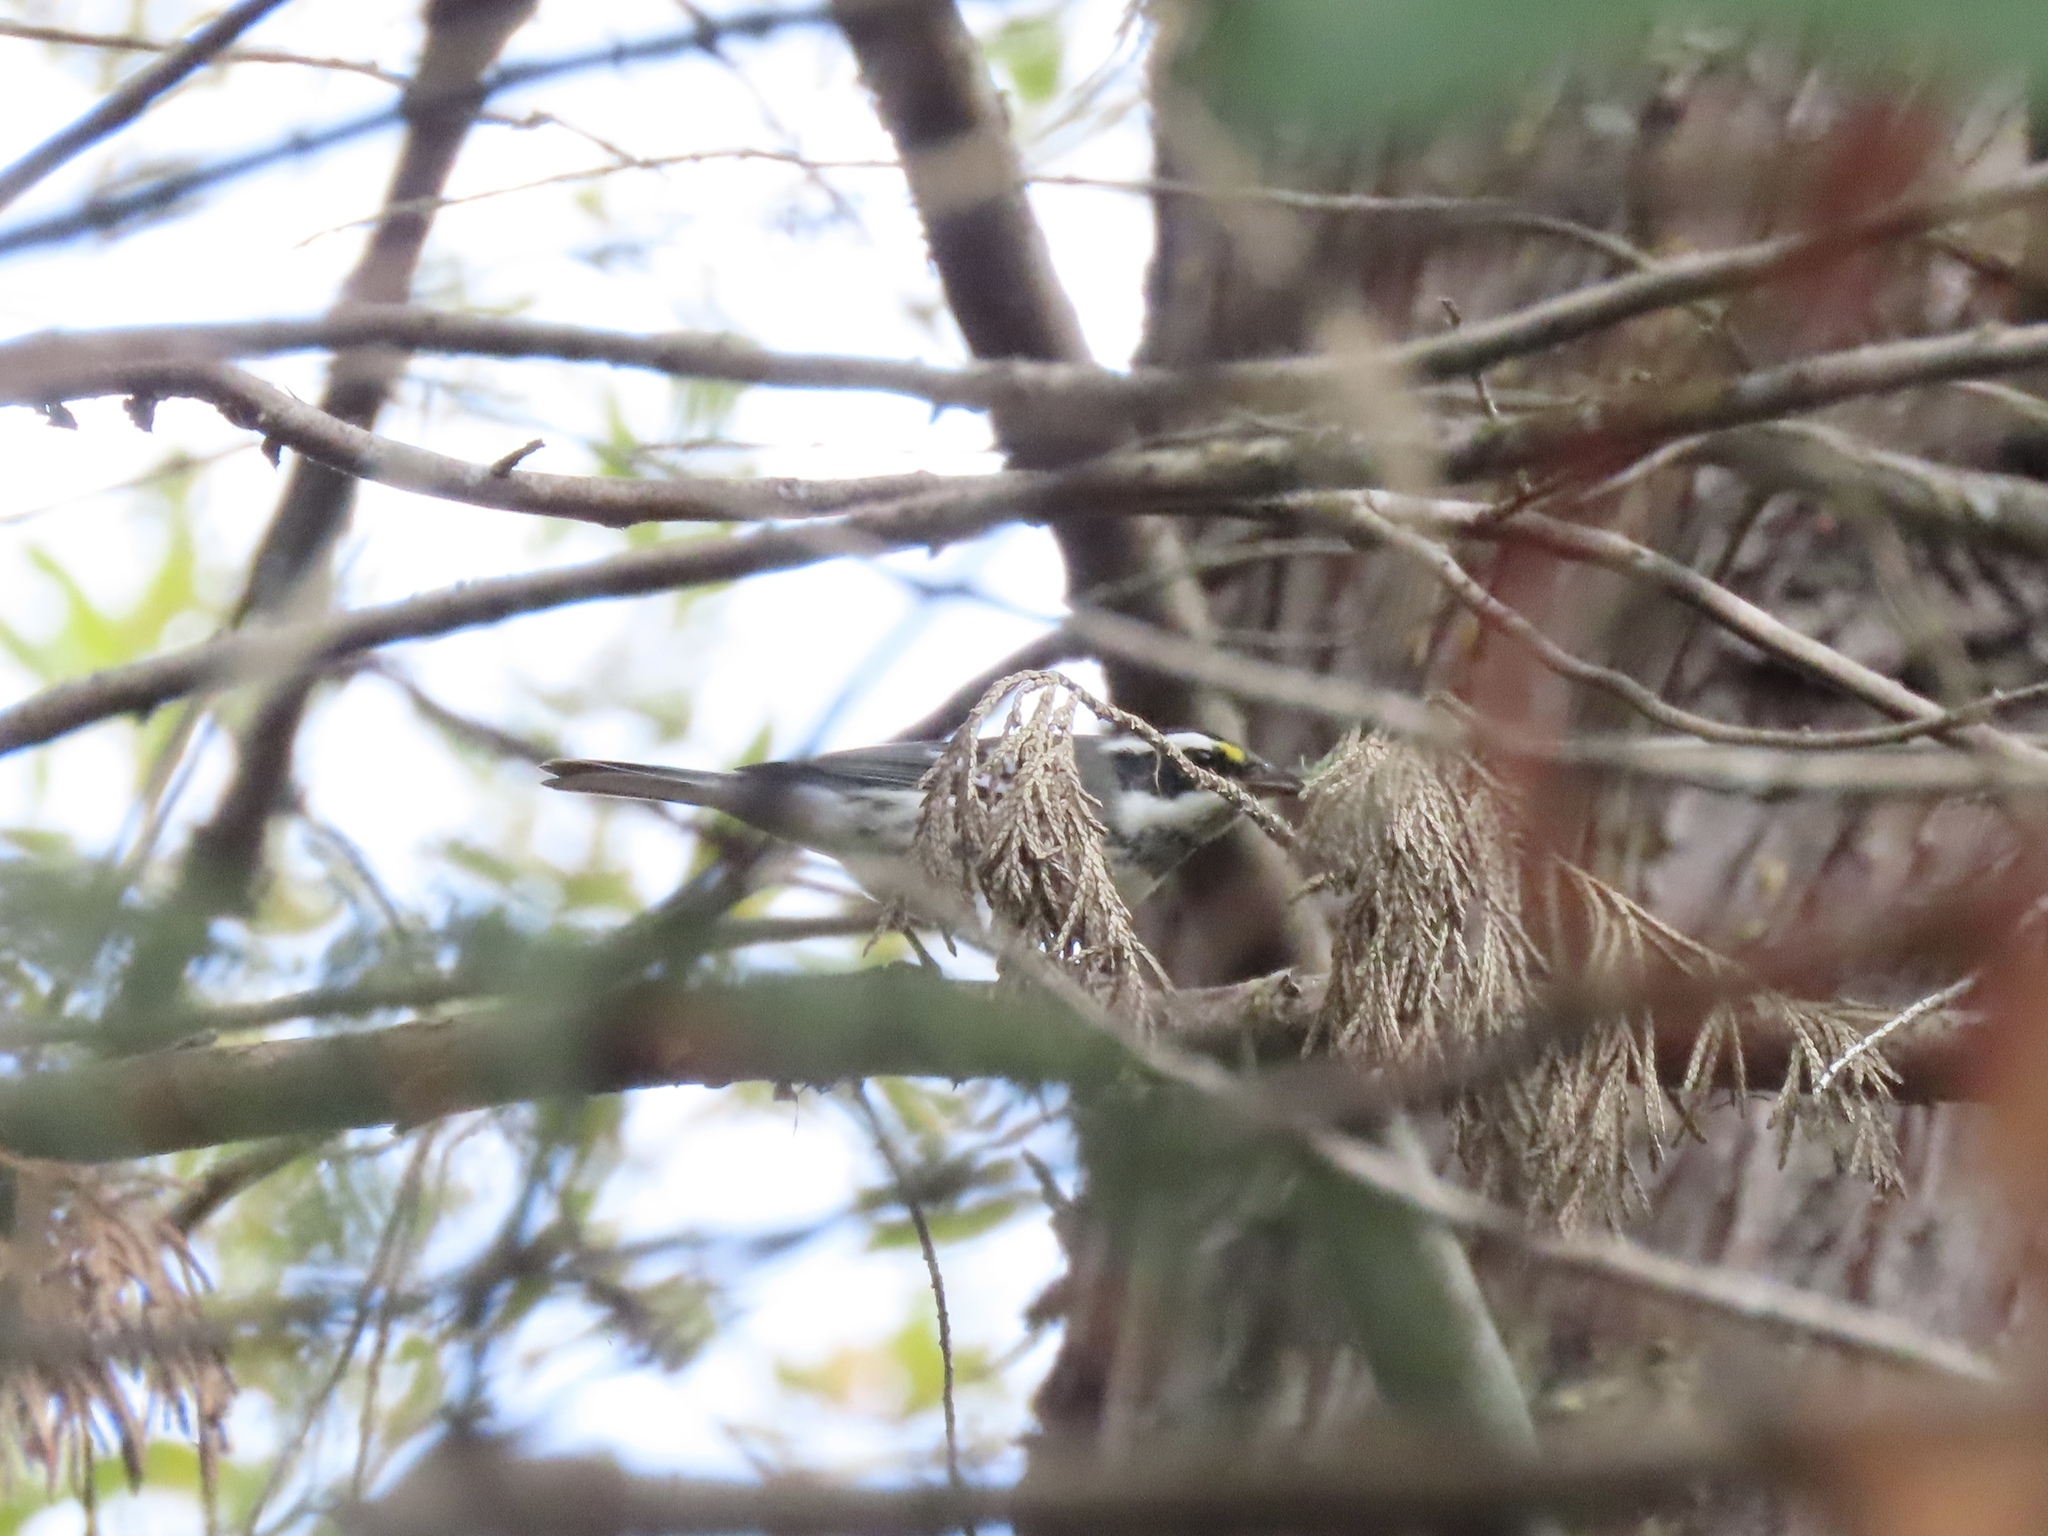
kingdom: Animalia
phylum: Chordata
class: Aves
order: Passeriformes
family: Parulidae
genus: Setophaga
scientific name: Setophaga nigrescens
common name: Black-throated gray warbler
